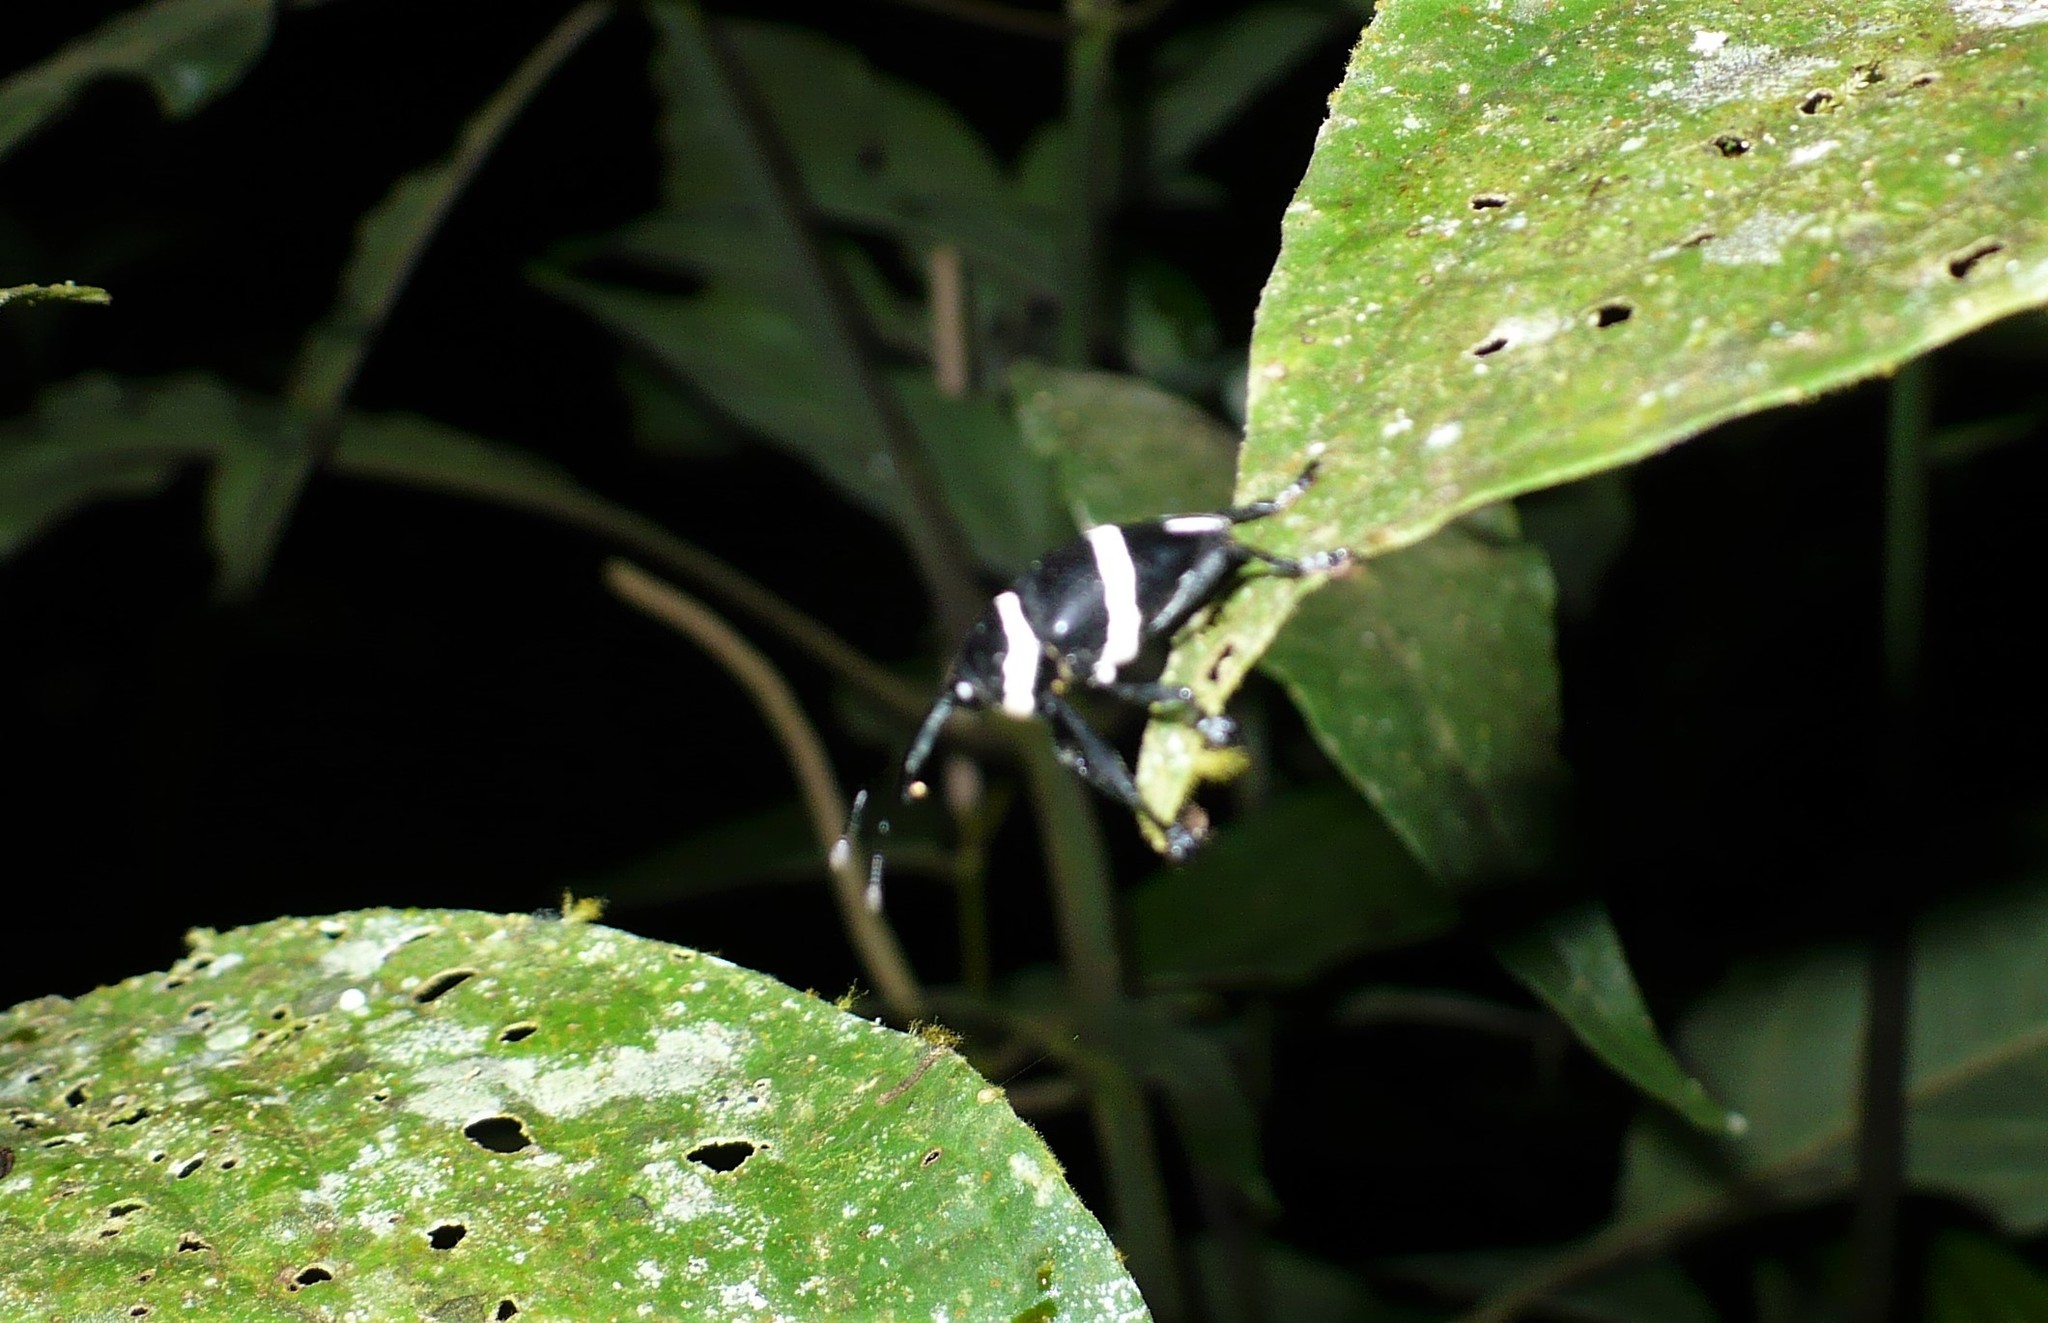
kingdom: Animalia
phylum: Arthropoda
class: Insecta
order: Coleoptera
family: Curculionidae
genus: Cholus
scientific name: Cholus lacordairei
